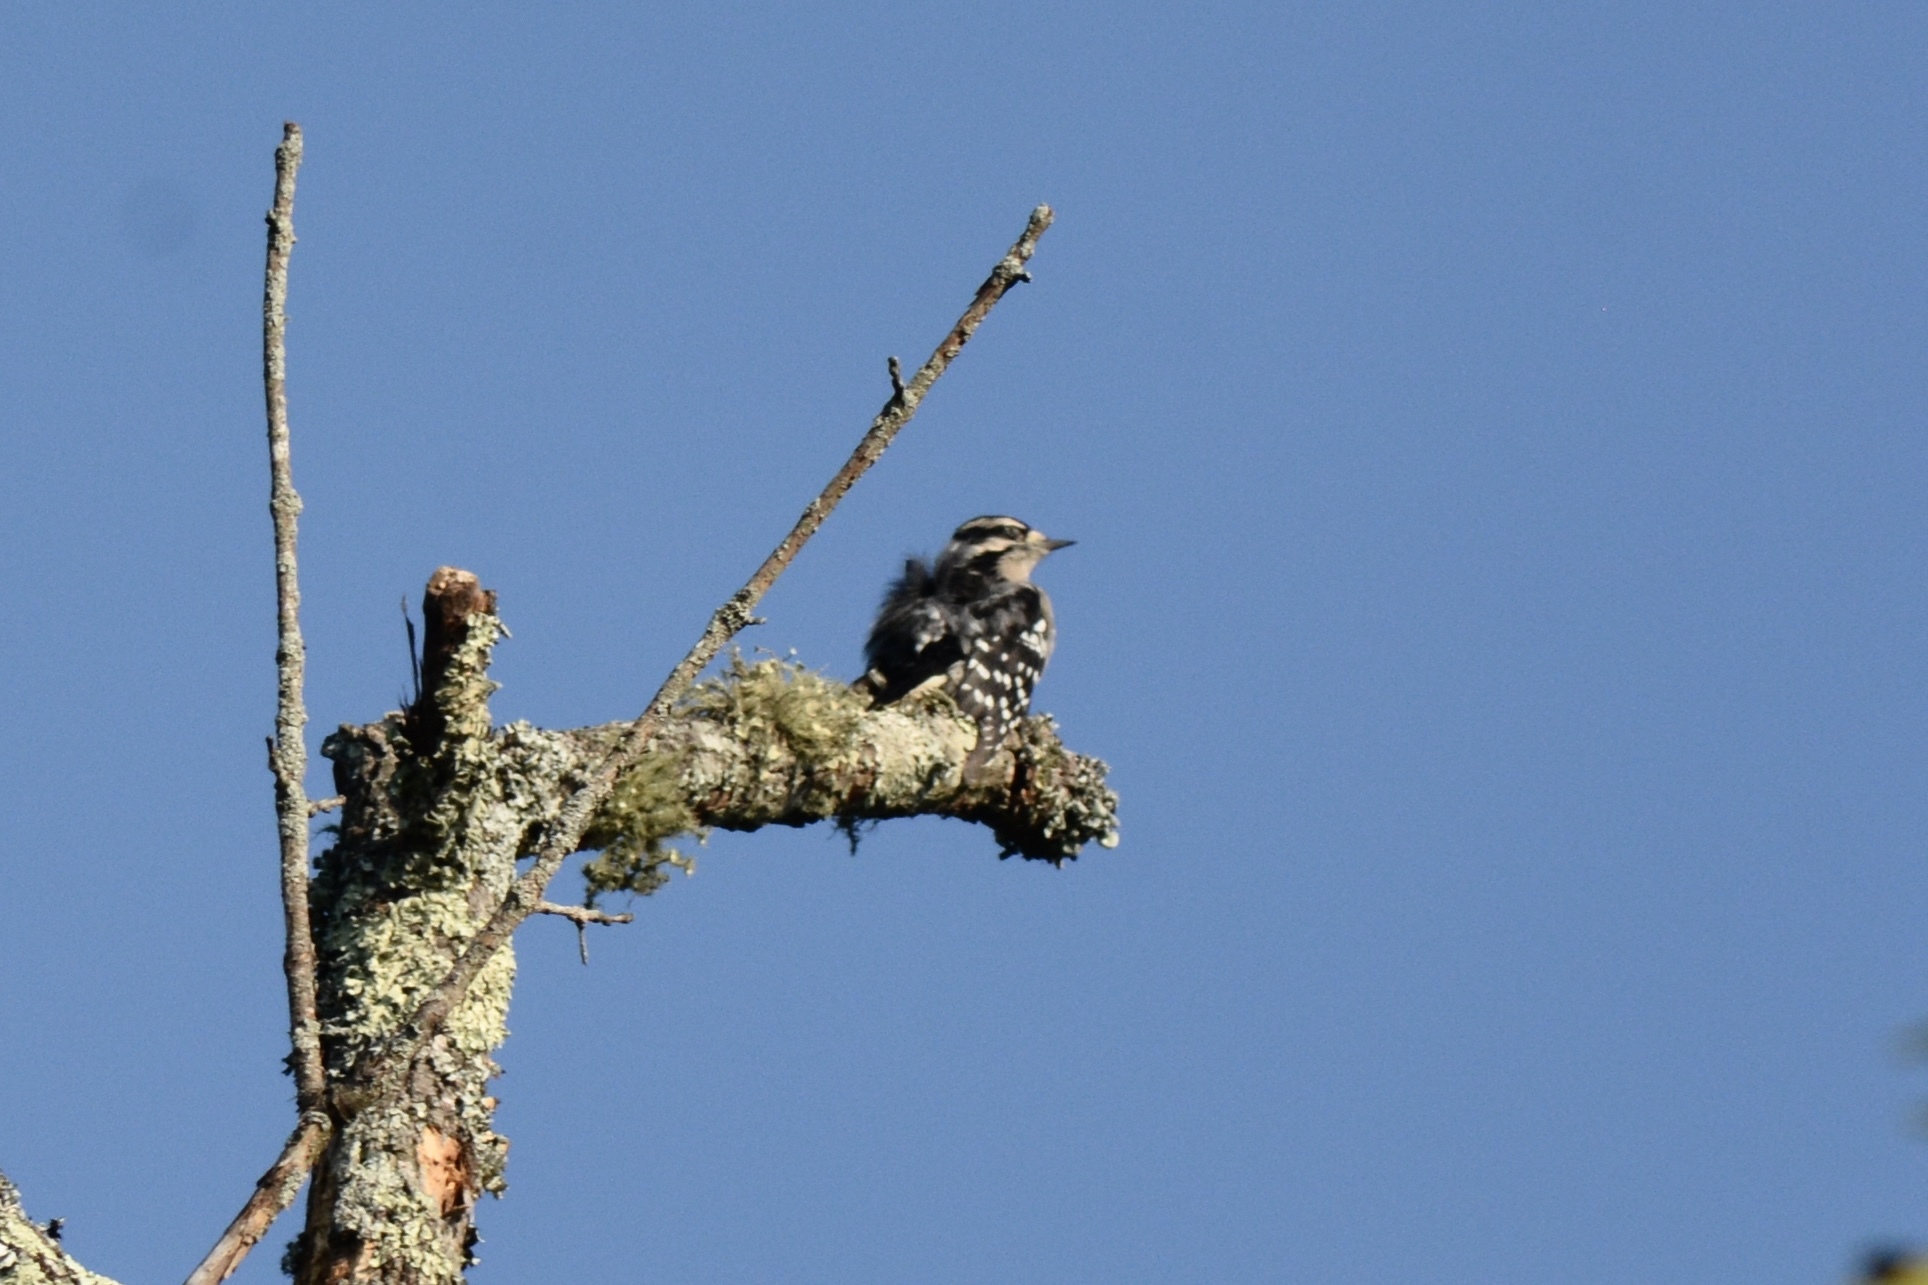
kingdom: Animalia
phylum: Chordata
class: Aves
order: Piciformes
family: Picidae
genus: Dryobates
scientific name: Dryobates pubescens
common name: Downy woodpecker
